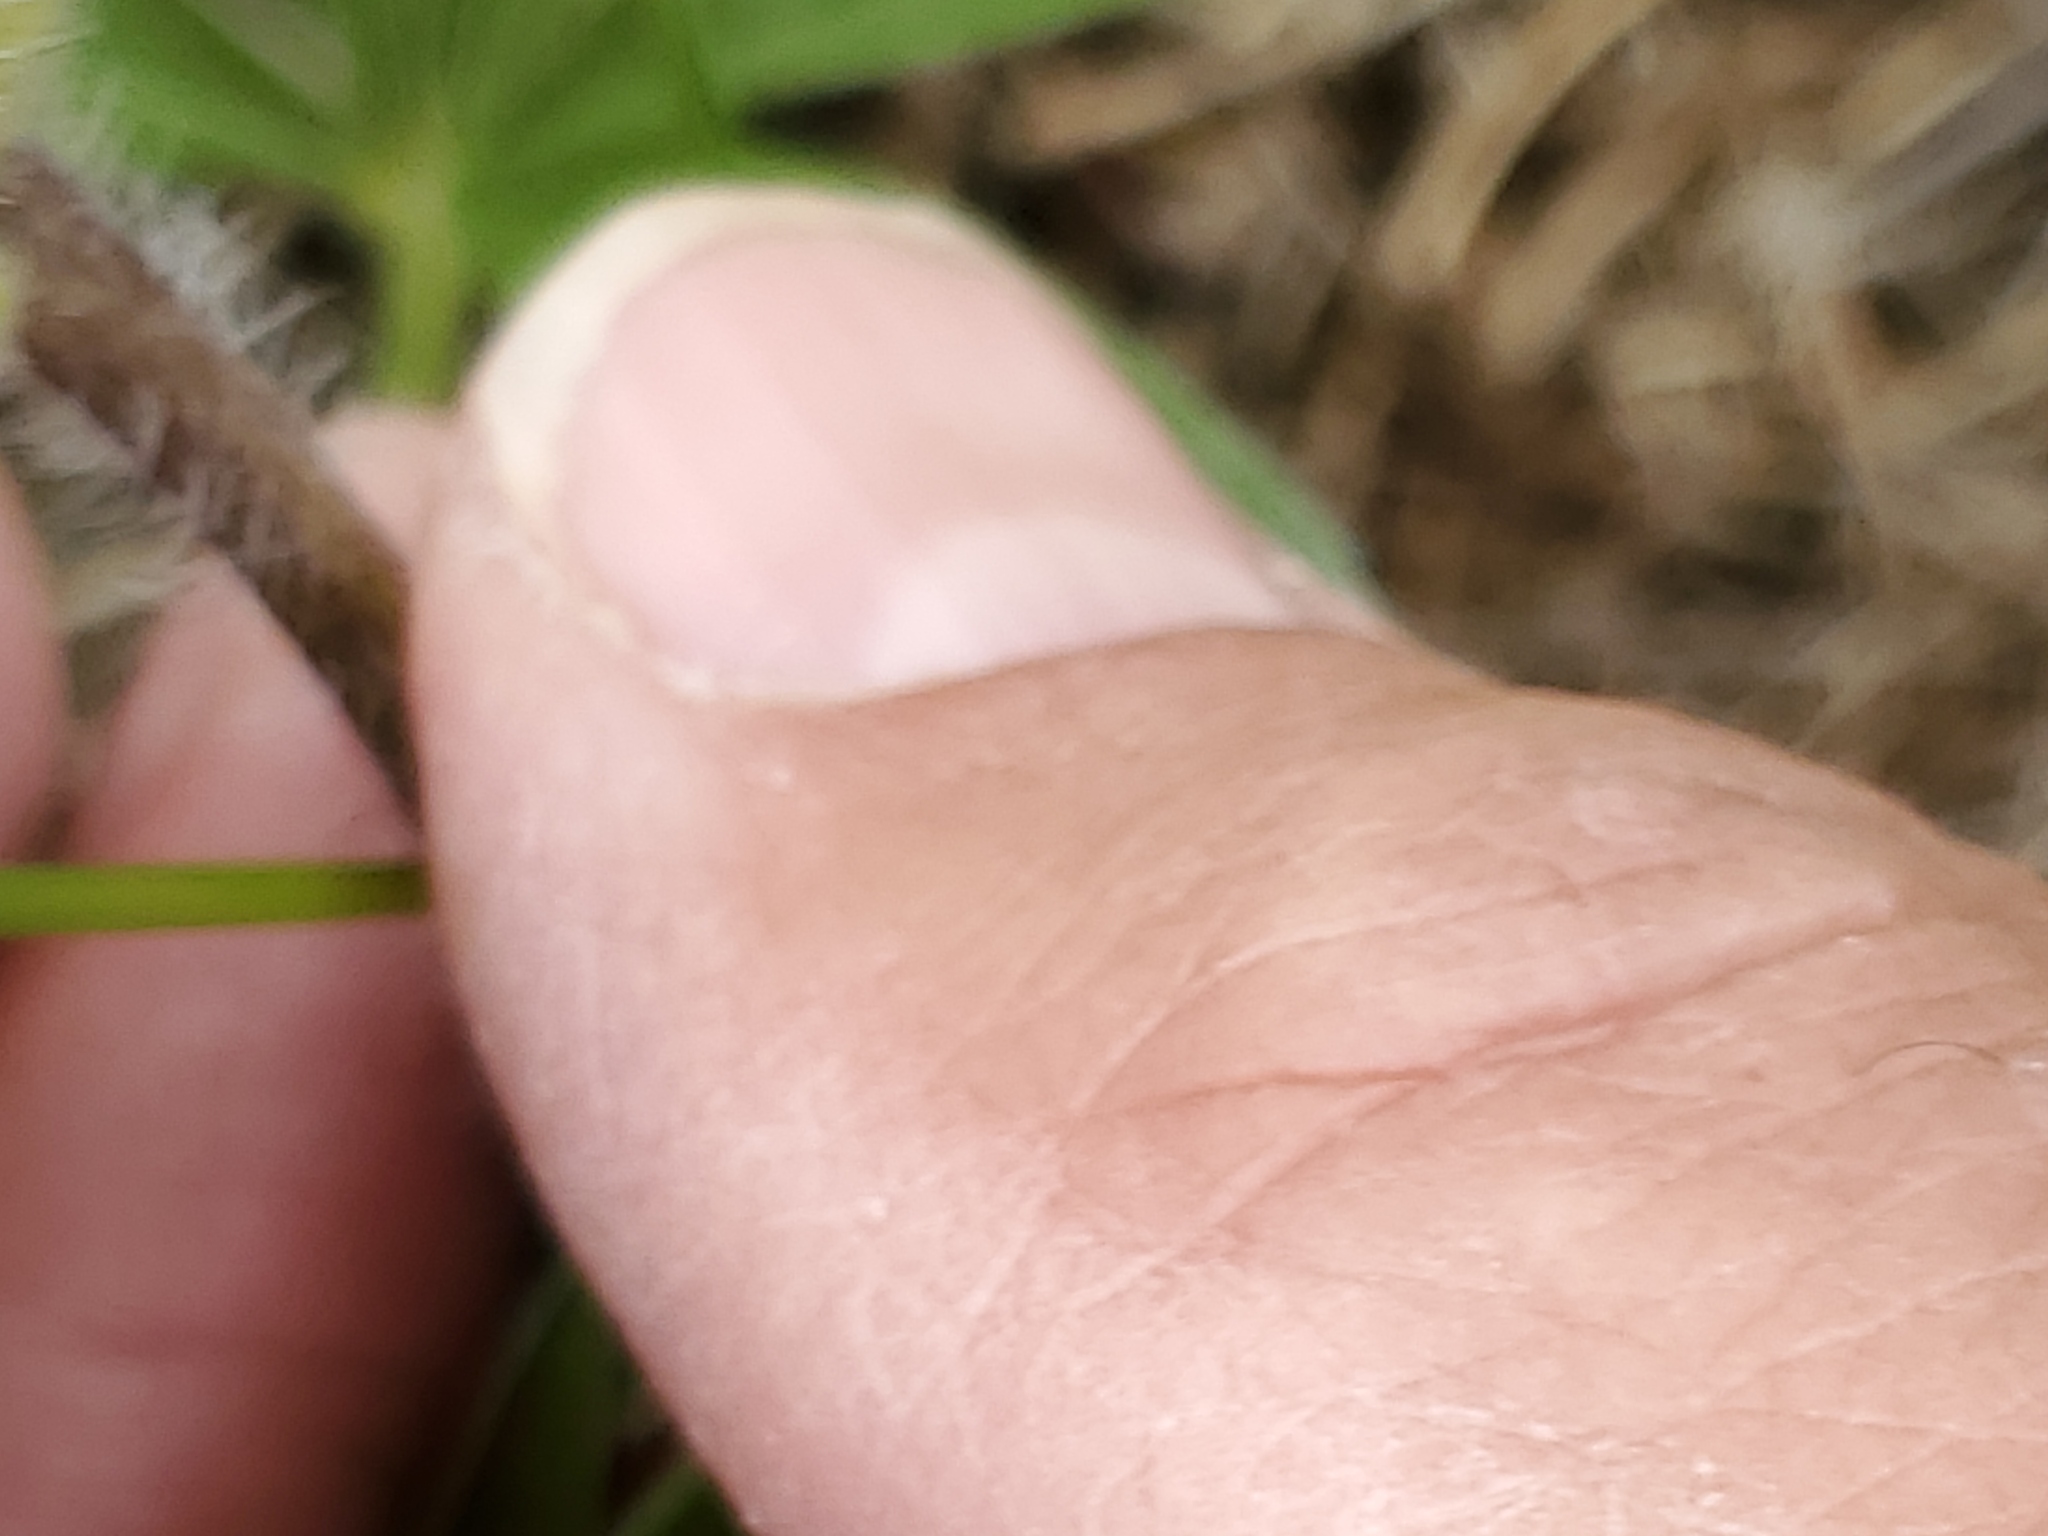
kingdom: Plantae
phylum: Tracheophyta
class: Magnoliopsida
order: Fabales
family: Fabaceae
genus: Pediomelum
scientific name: Pediomelum esculentum
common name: Indian-turnip
